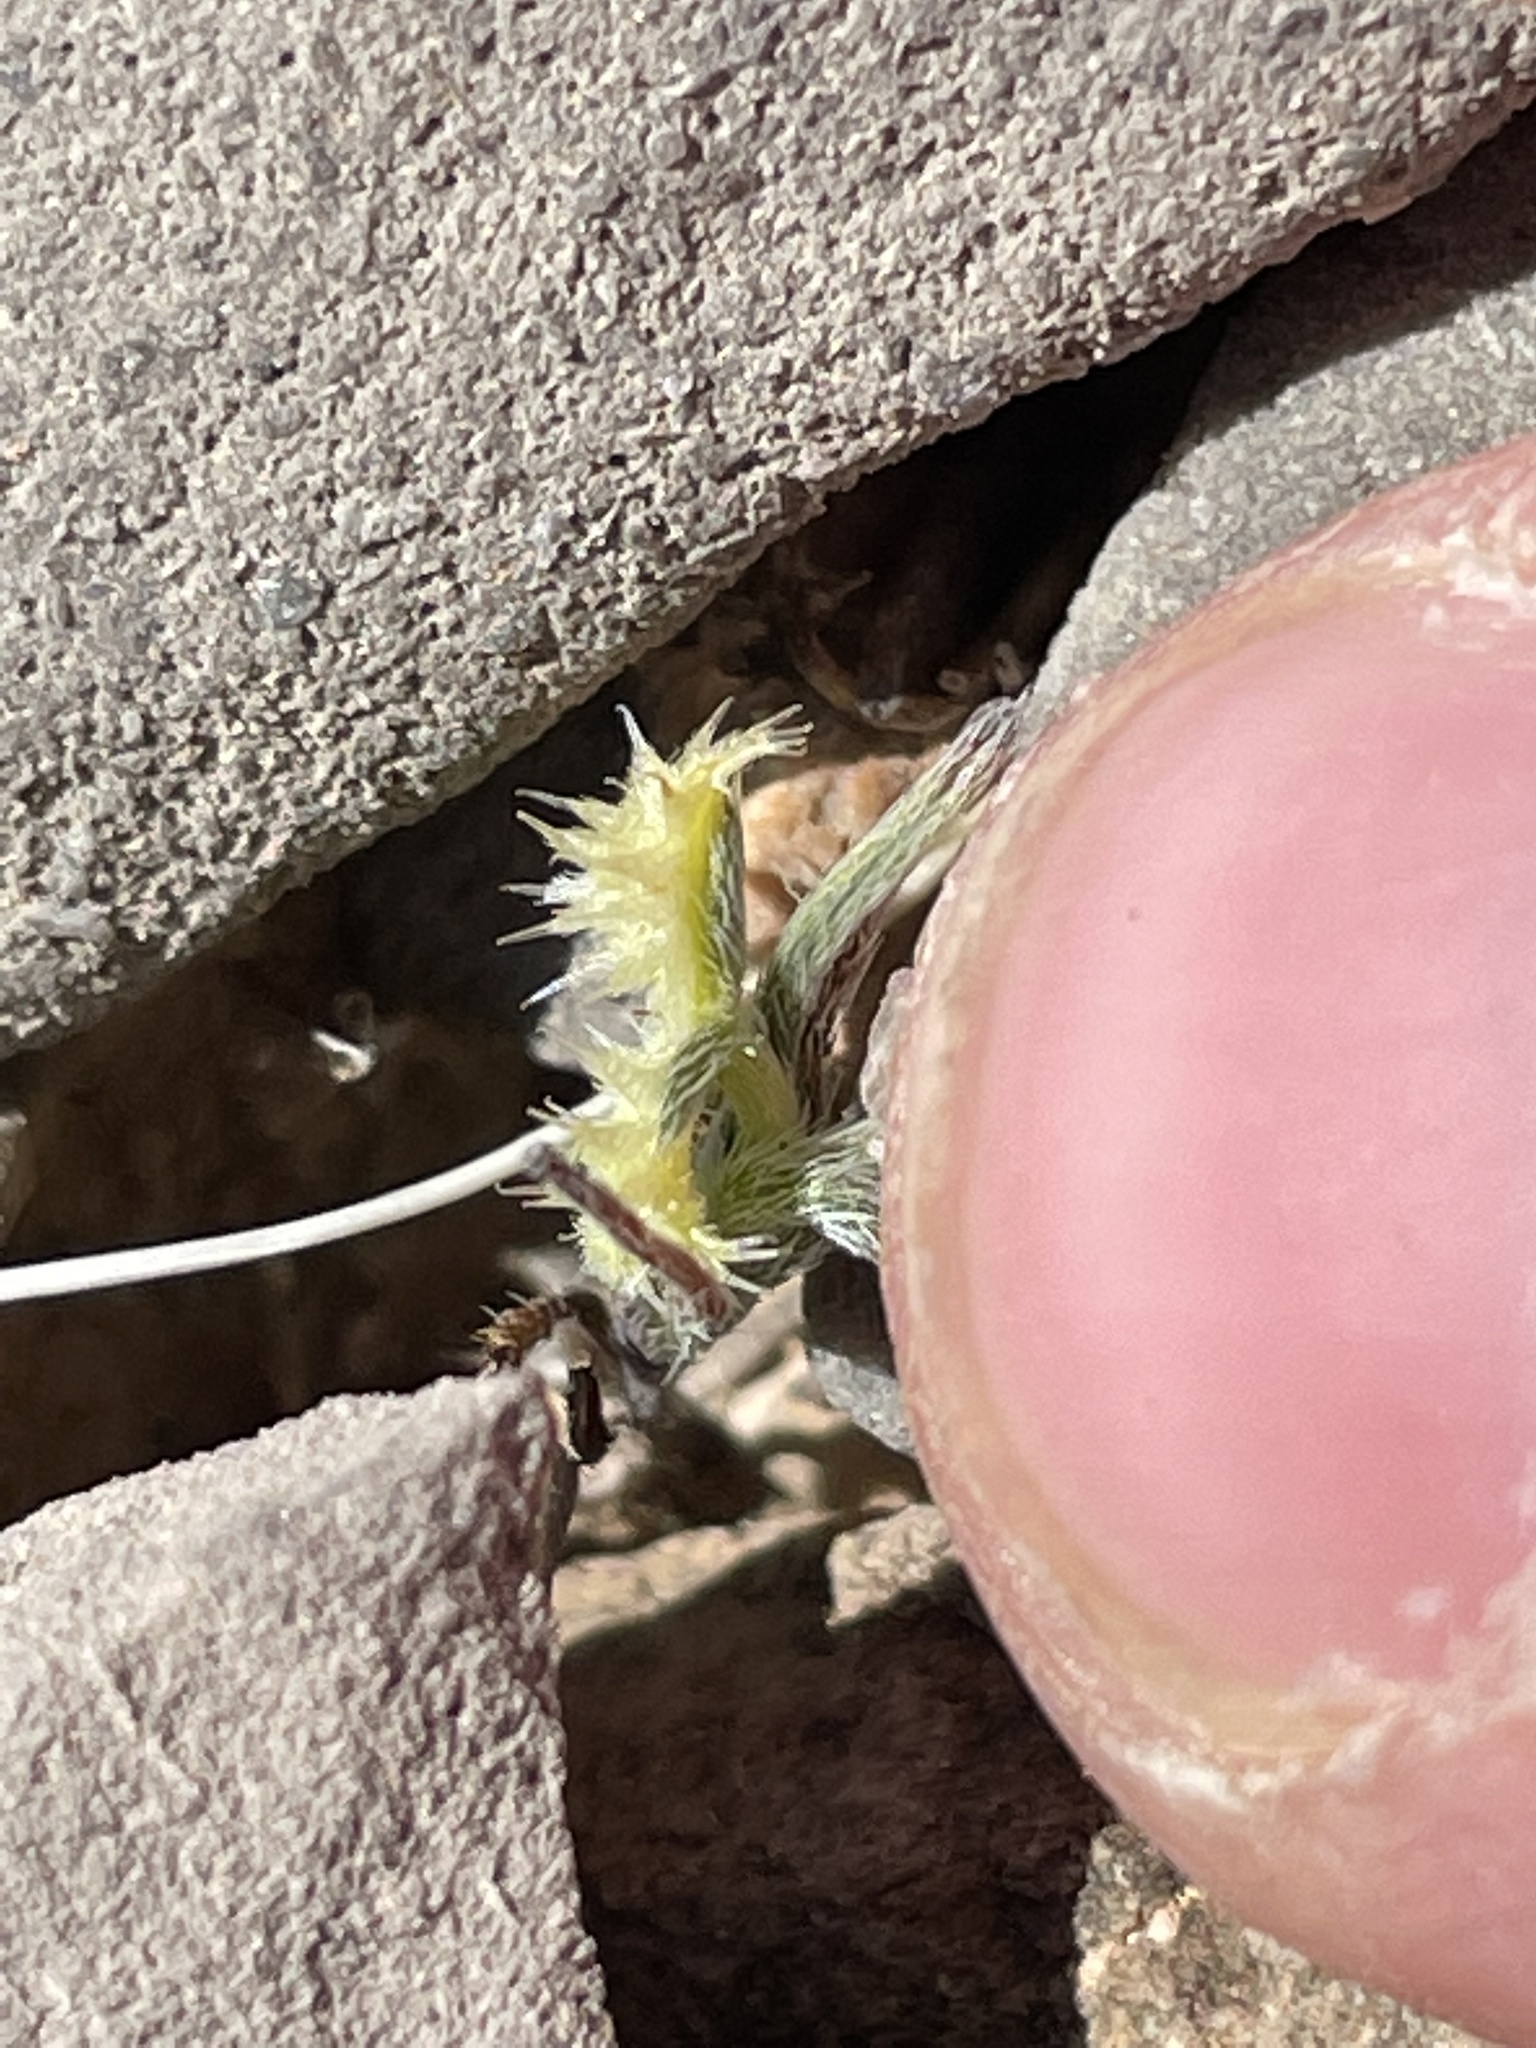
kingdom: Plantae
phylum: Tracheophyta
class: Magnoliopsida
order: Boraginales
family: Boraginaceae
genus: Pectocarya
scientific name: Pectocarya recurvata
